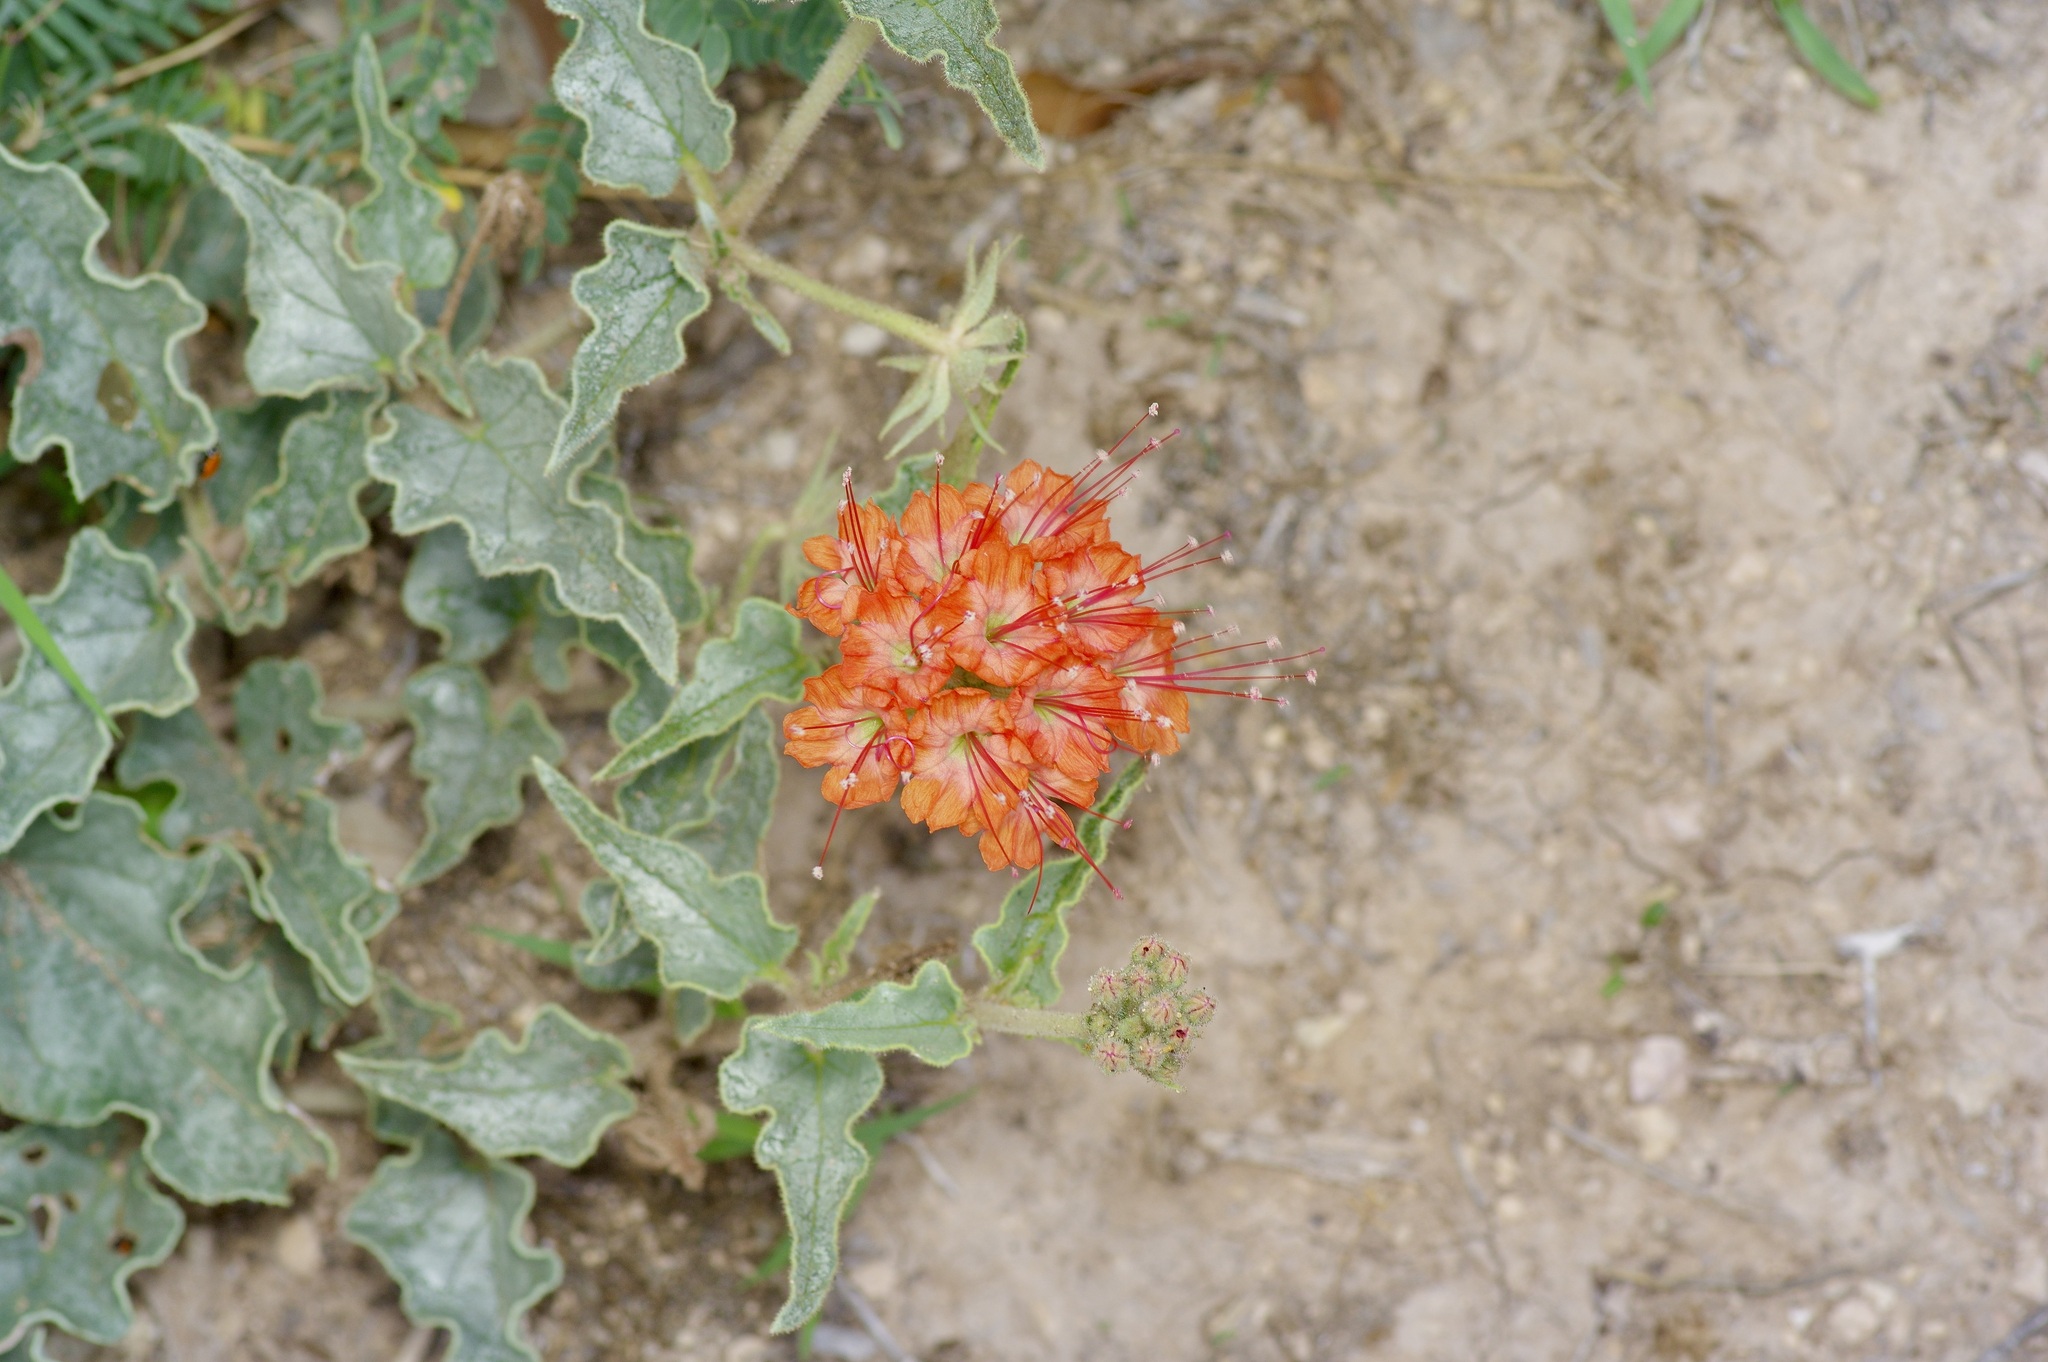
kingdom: Plantae
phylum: Tracheophyta
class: Magnoliopsida
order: Caryophyllales
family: Nyctaginaceae
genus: Nyctaginia
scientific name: Nyctaginia capitata
